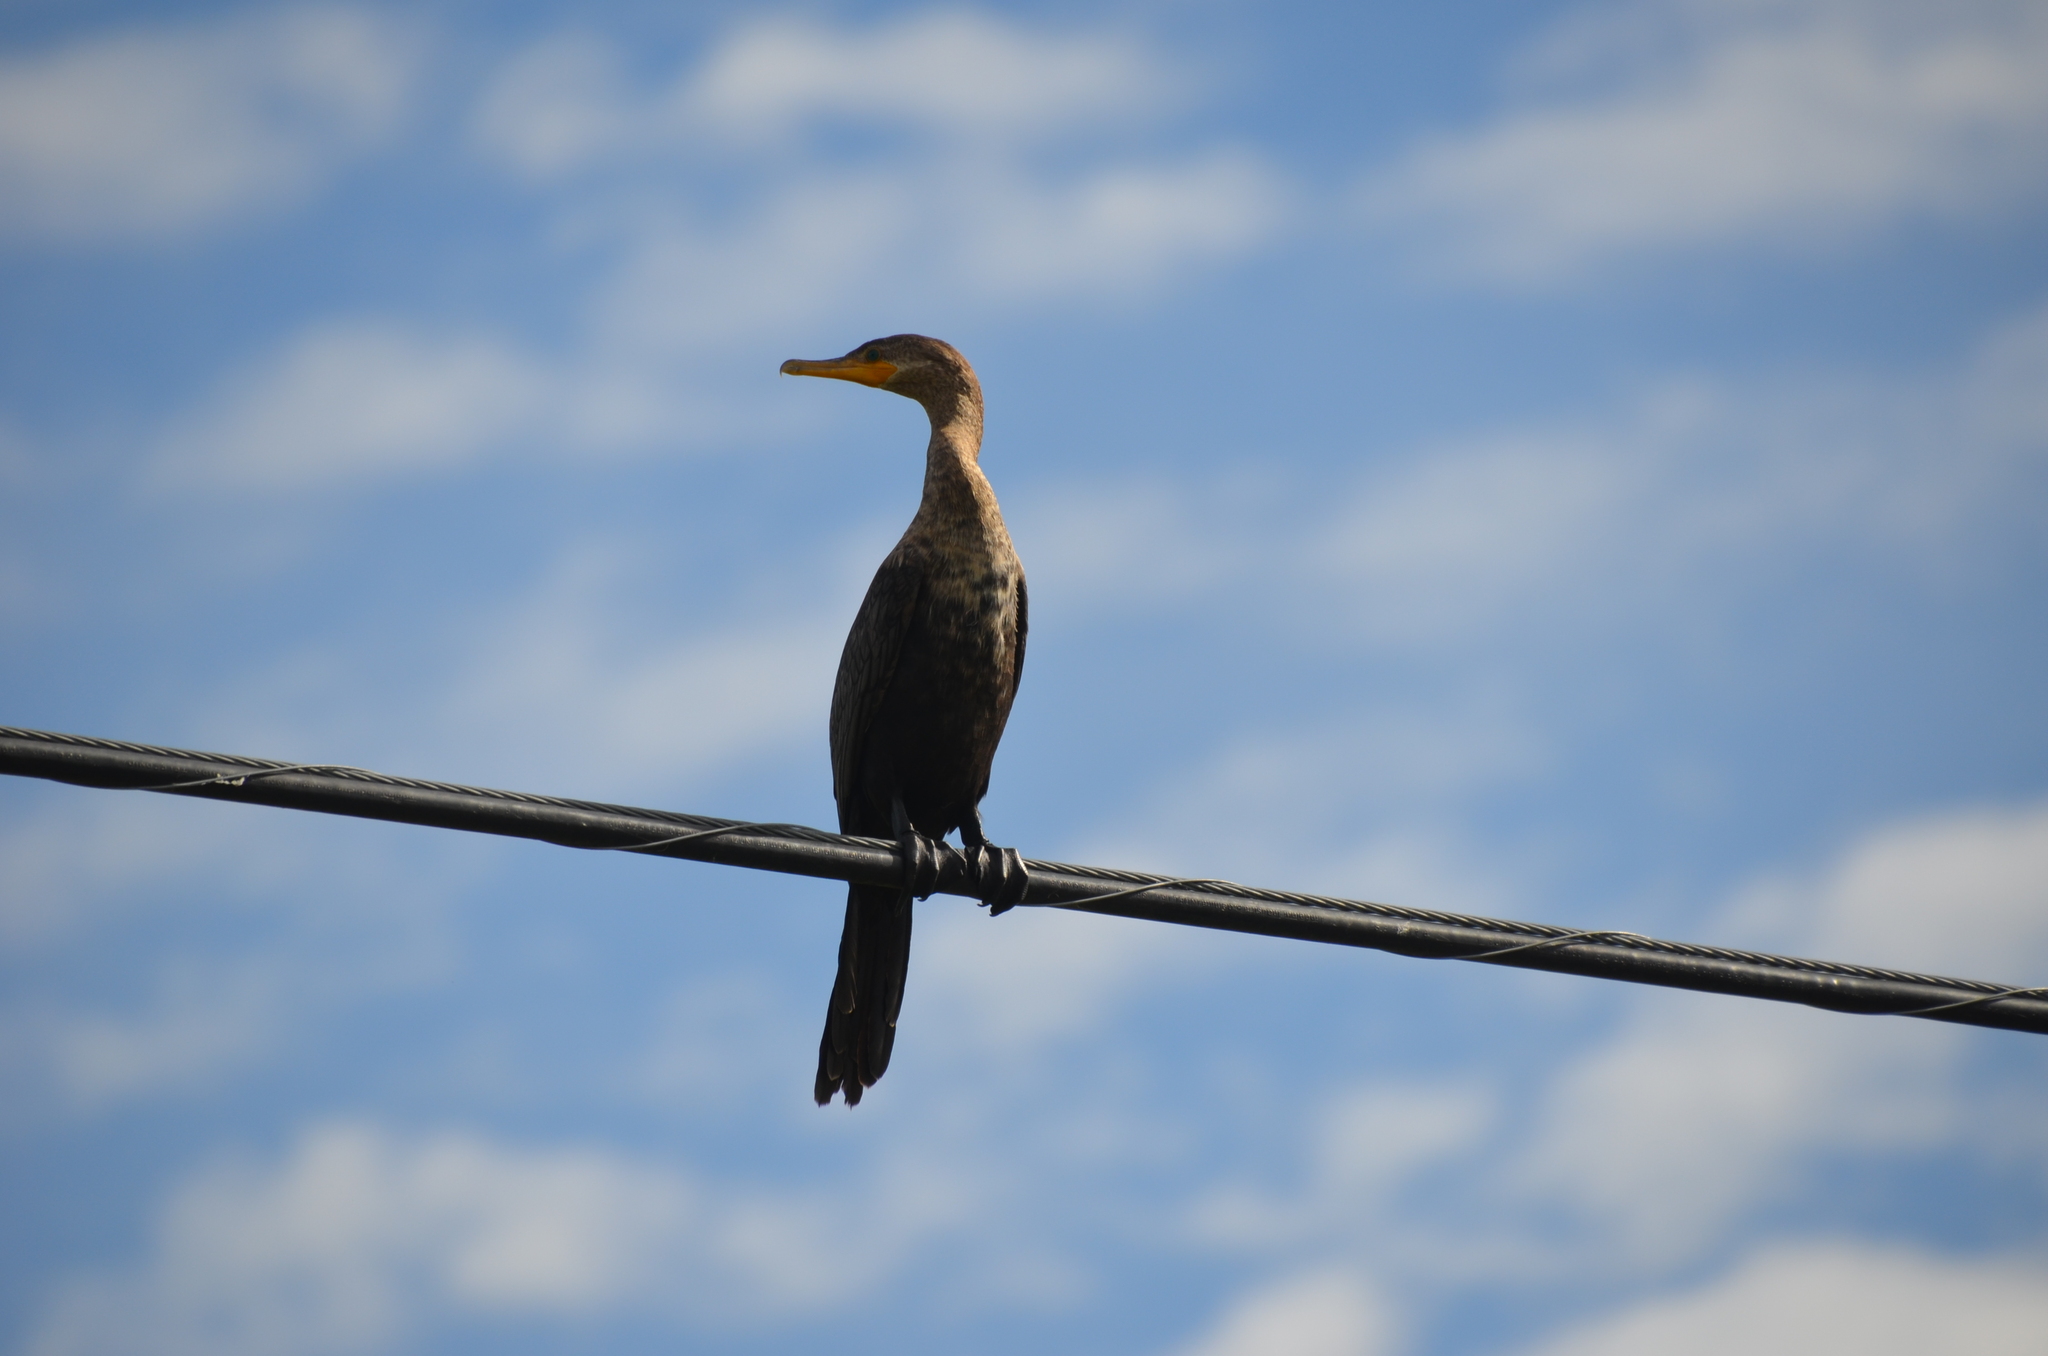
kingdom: Animalia
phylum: Chordata
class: Aves
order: Suliformes
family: Phalacrocoracidae
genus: Phalacrocorax
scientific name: Phalacrocorax brasilianus
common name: Neotropic cormorant
